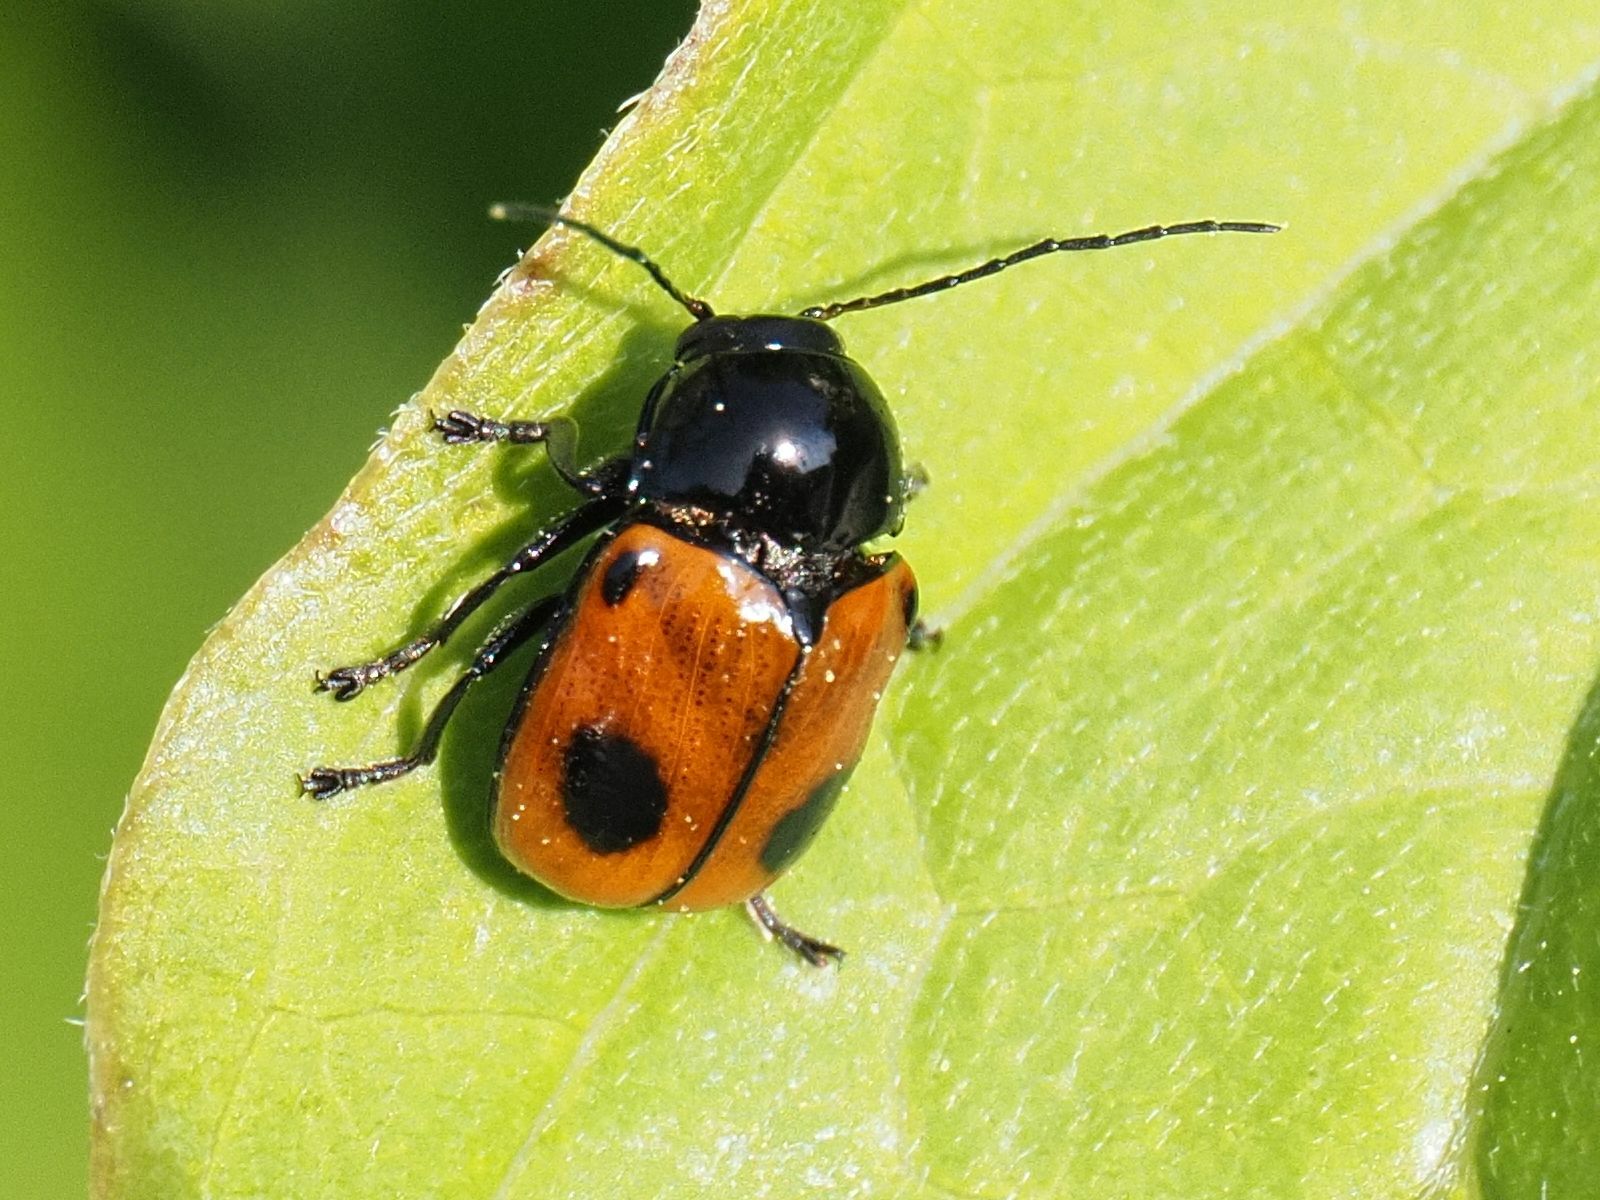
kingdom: Animalia
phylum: Arthropoda
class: Insecta
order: Coleoptera
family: Chrysomelidae
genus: Chiridopsis
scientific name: Chiridopsis bipunctata
